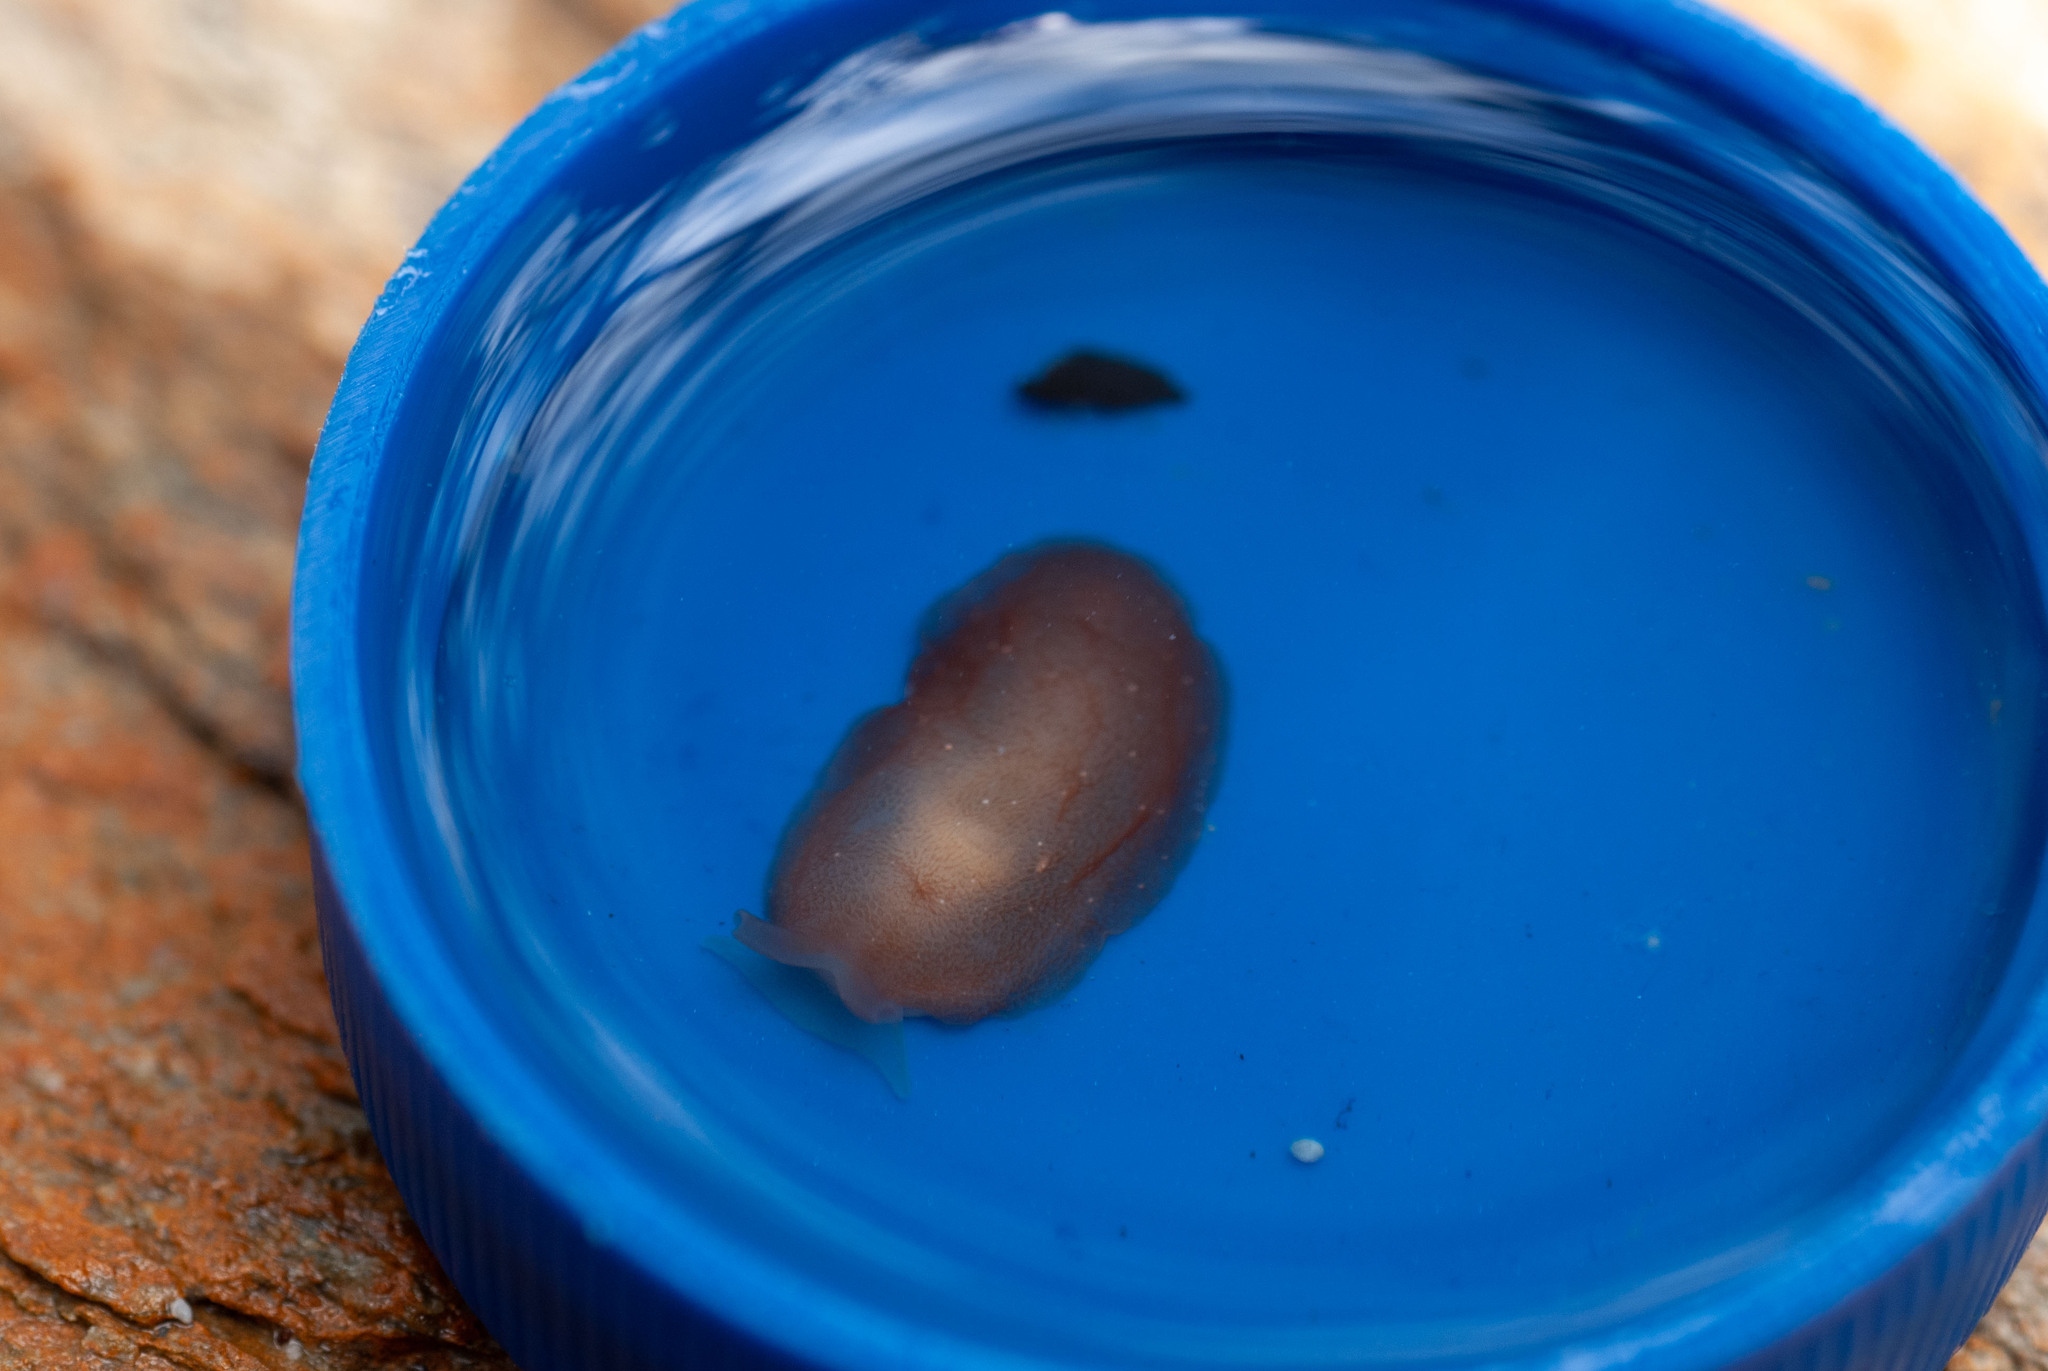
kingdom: Animalia
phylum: Mollusca
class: Gastropoda
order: Pleurobranchida
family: Pleurobranchidae
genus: Berthella
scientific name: Berthella agassizii
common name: Agassiz's berthella
